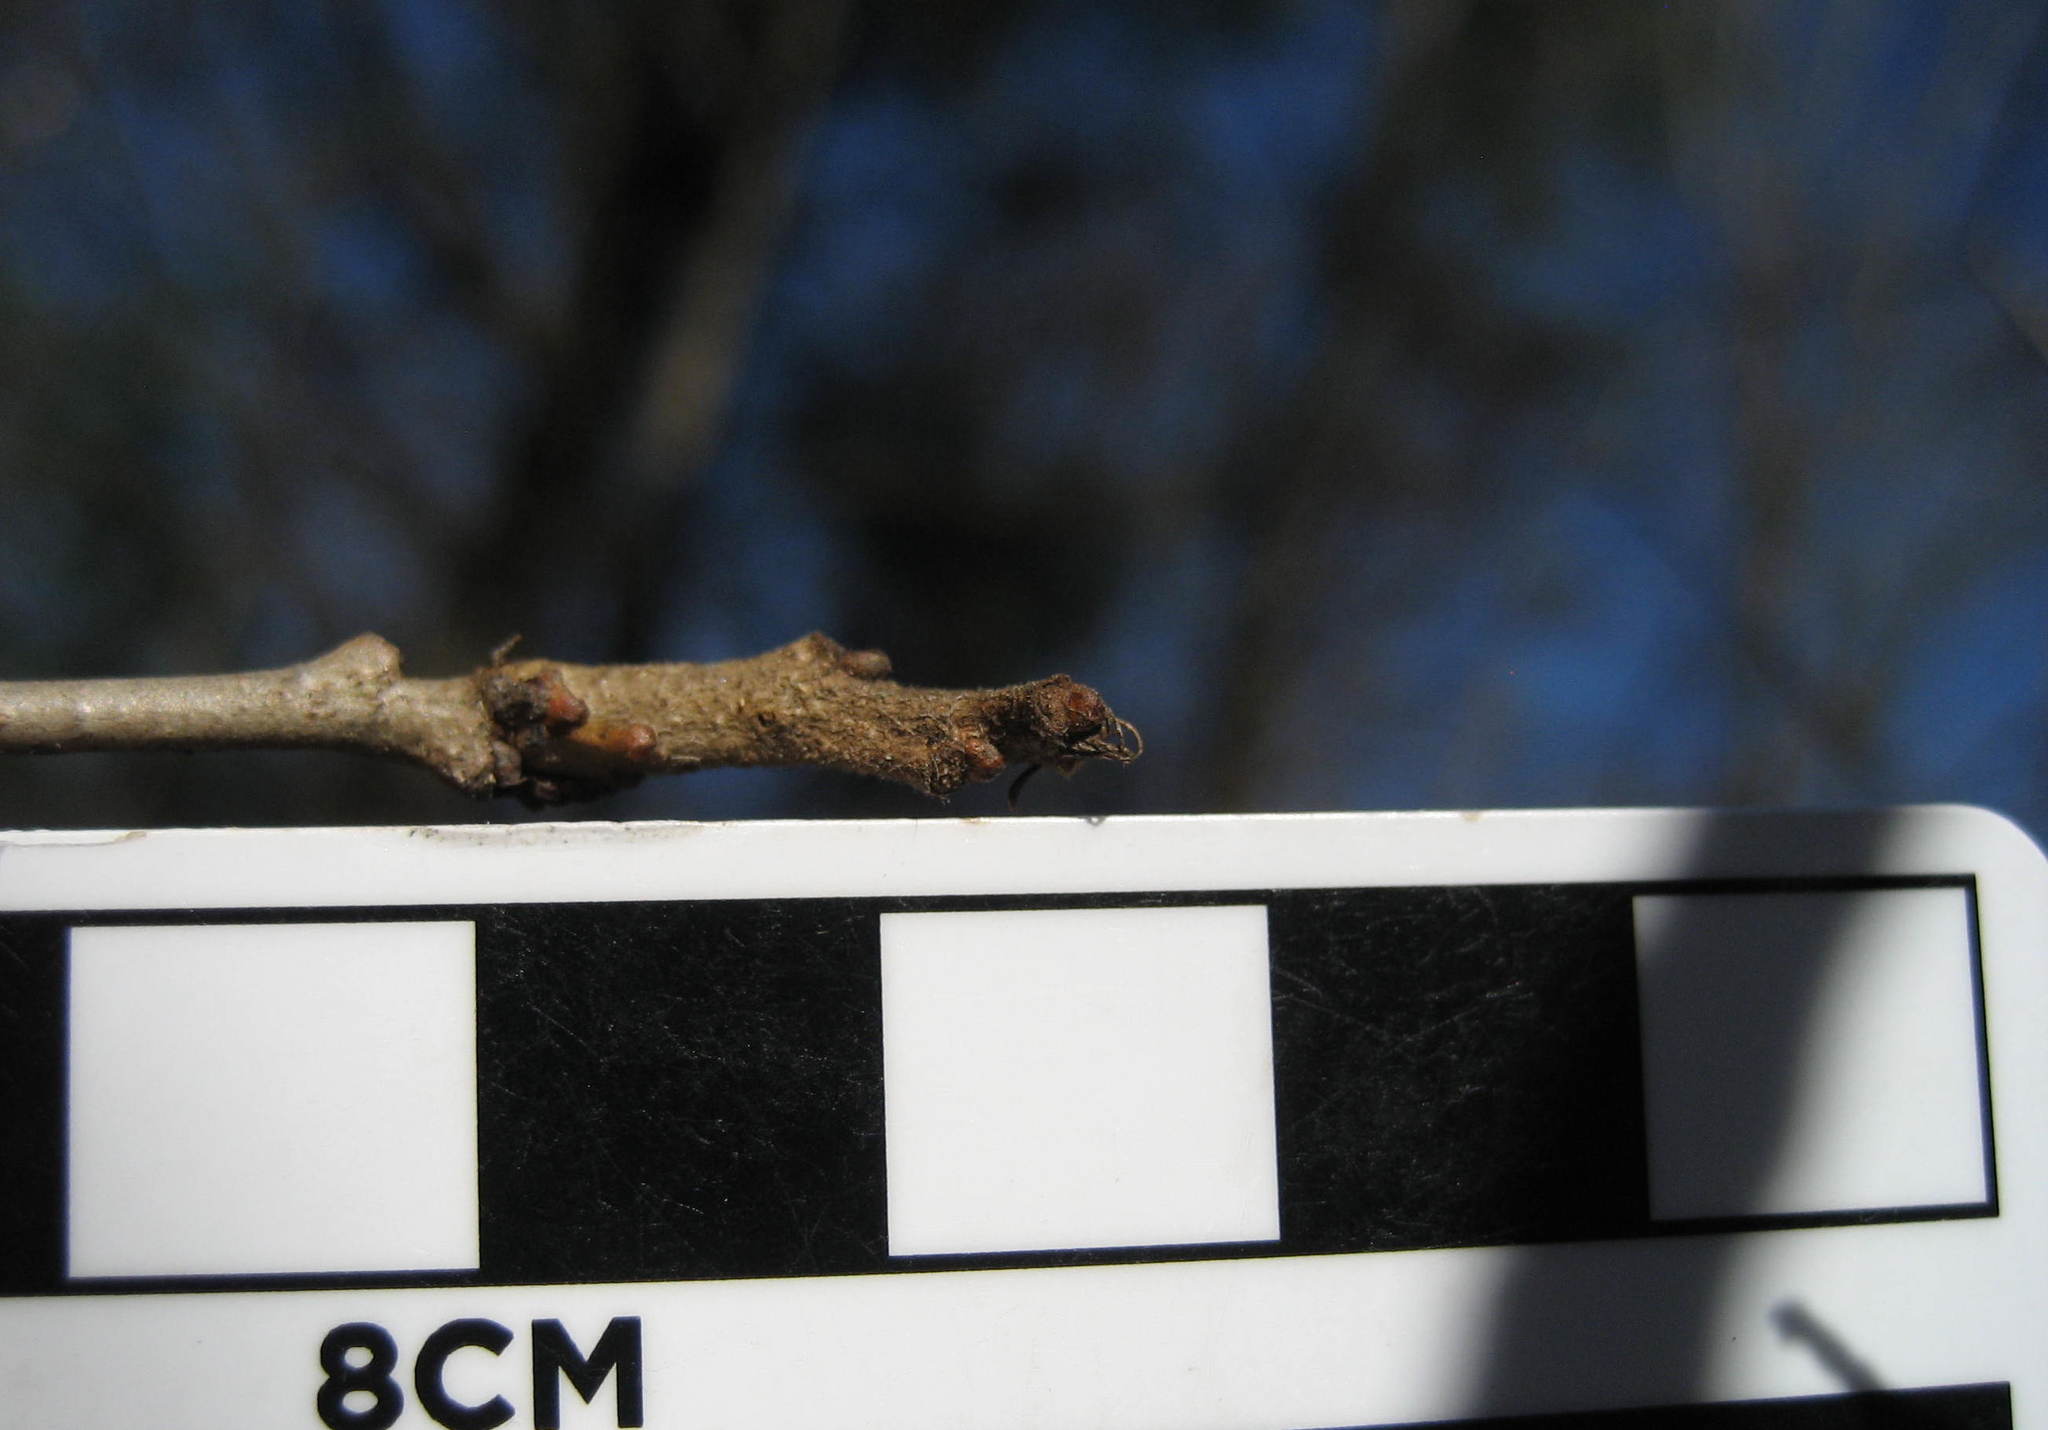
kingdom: Plantae
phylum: Tracheophyta
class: Magnoliopsida
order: Fagales
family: Fagaceae
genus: Quercus
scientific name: Quercus macrocarpa
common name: Bur oak
